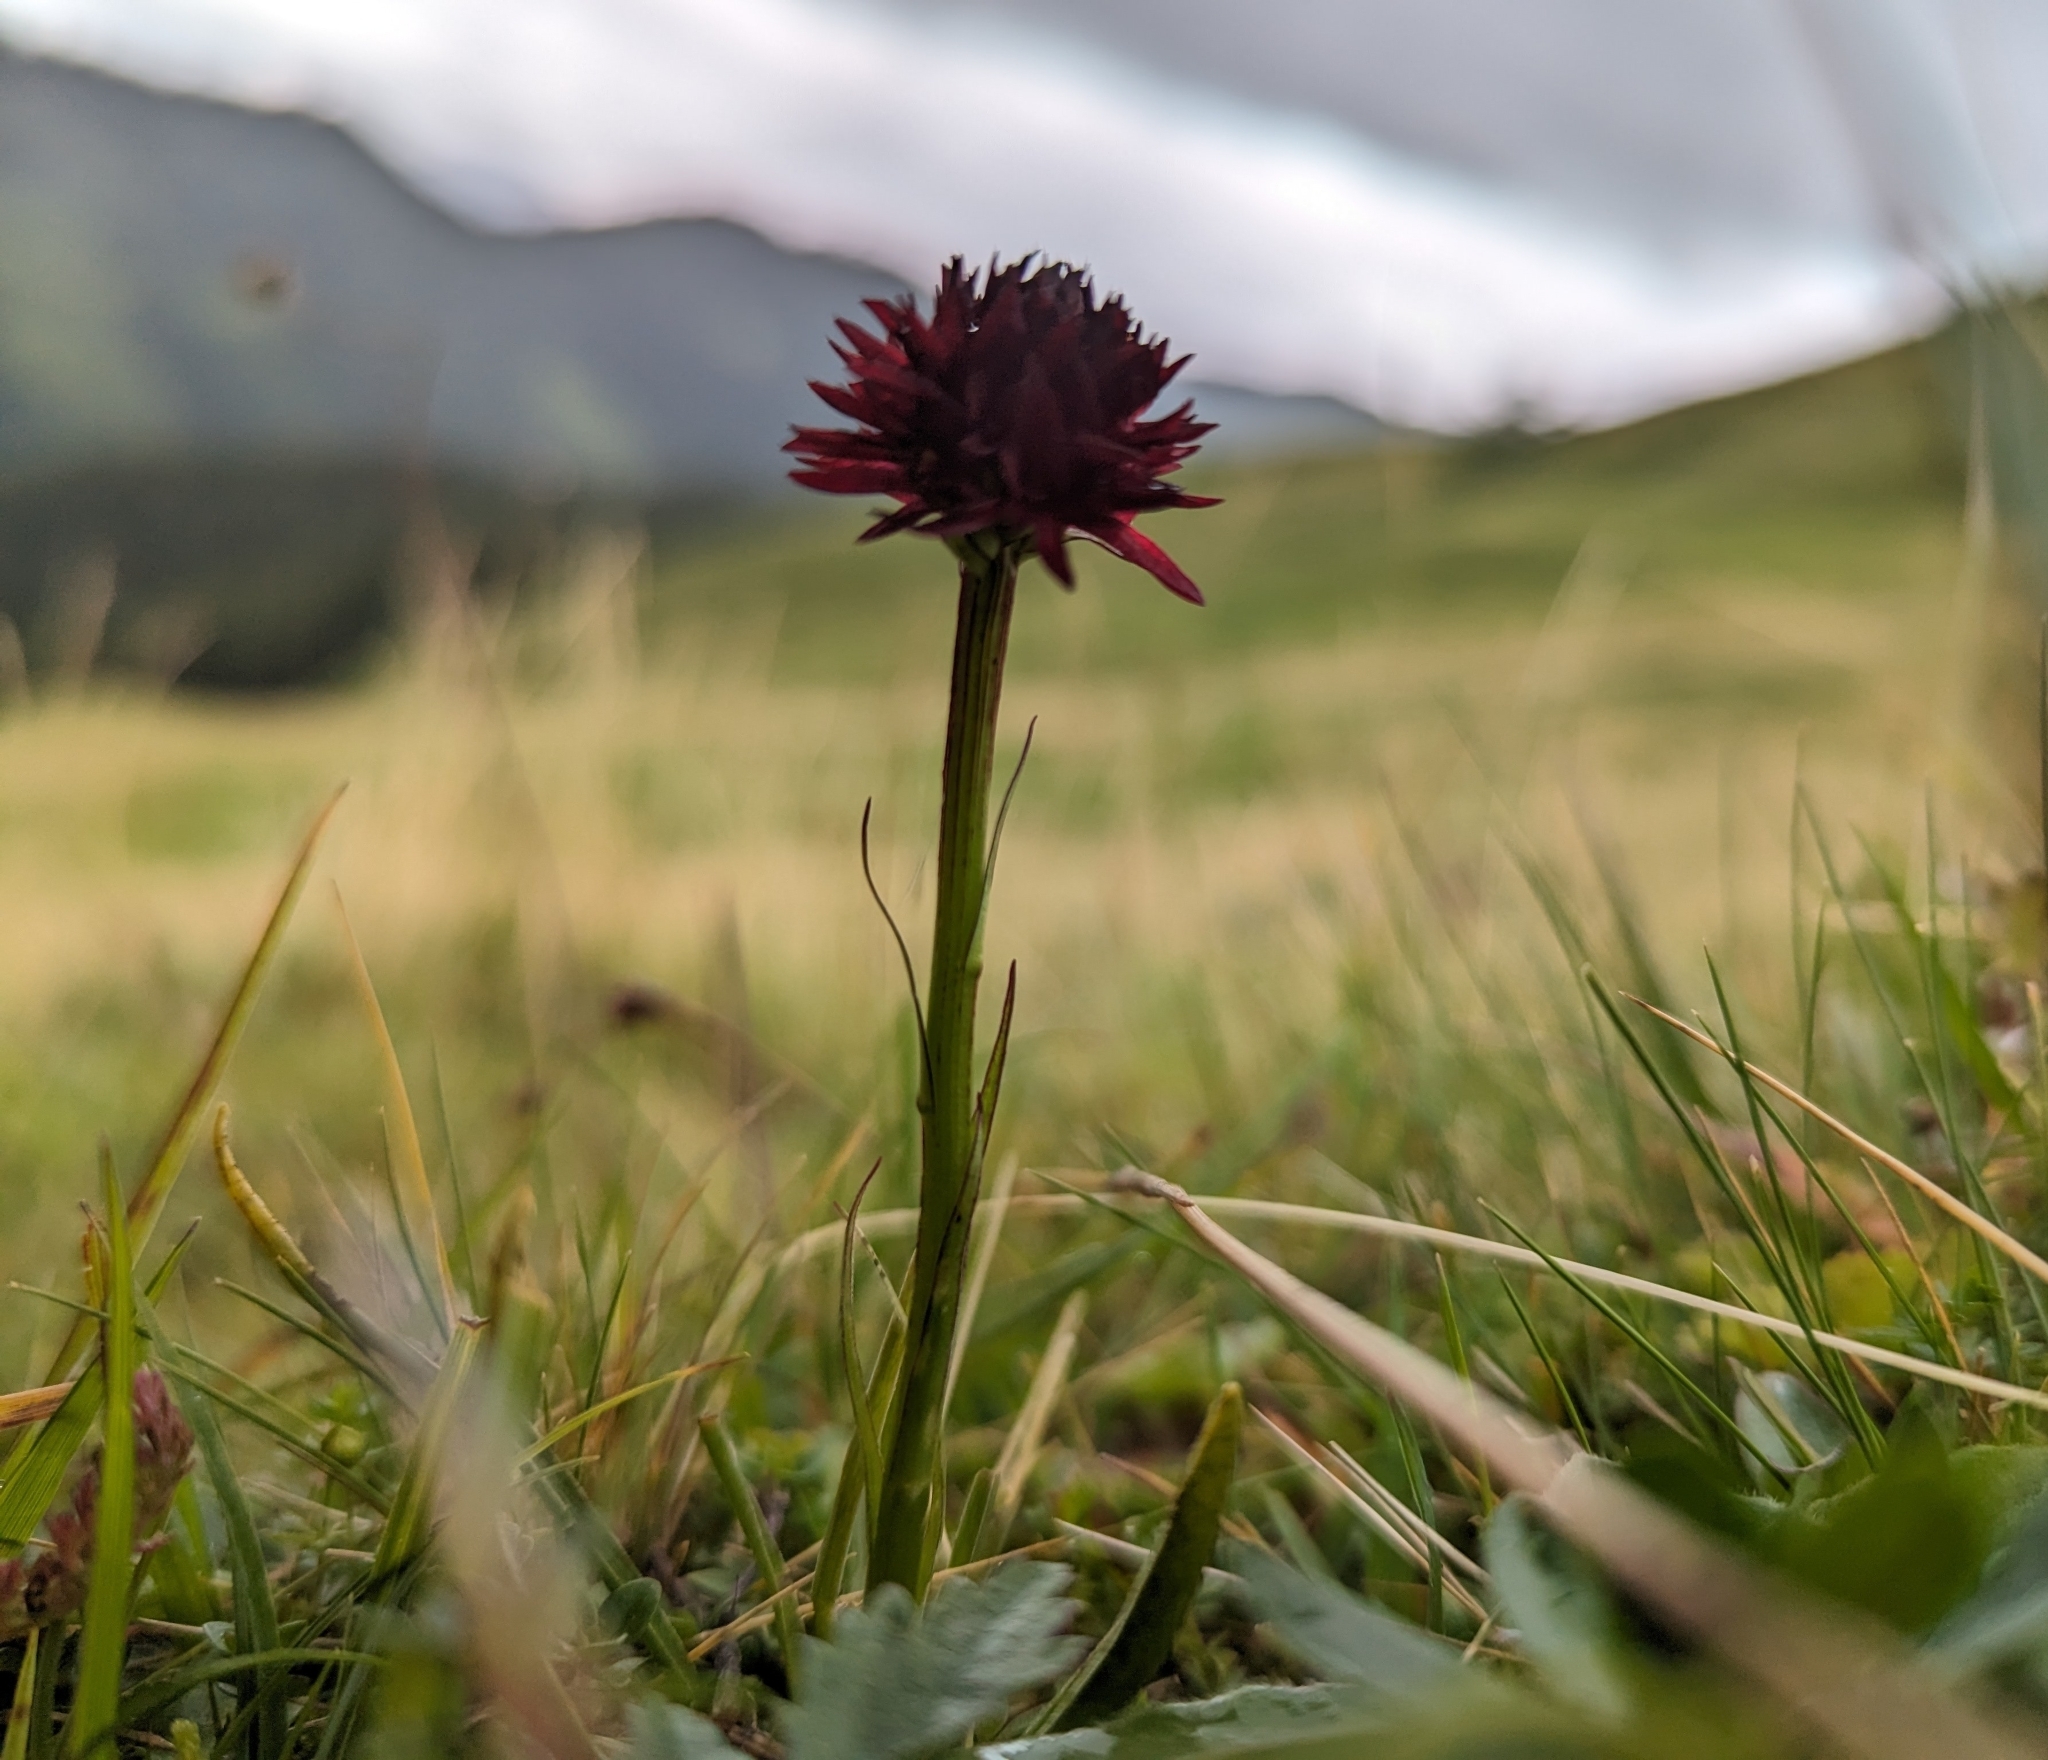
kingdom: Plantae
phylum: Tracheophyta
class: Liliopsida
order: Asparagales
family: Orchidaceae
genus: Gymnadenia
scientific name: Gymnadenia rhellicani
